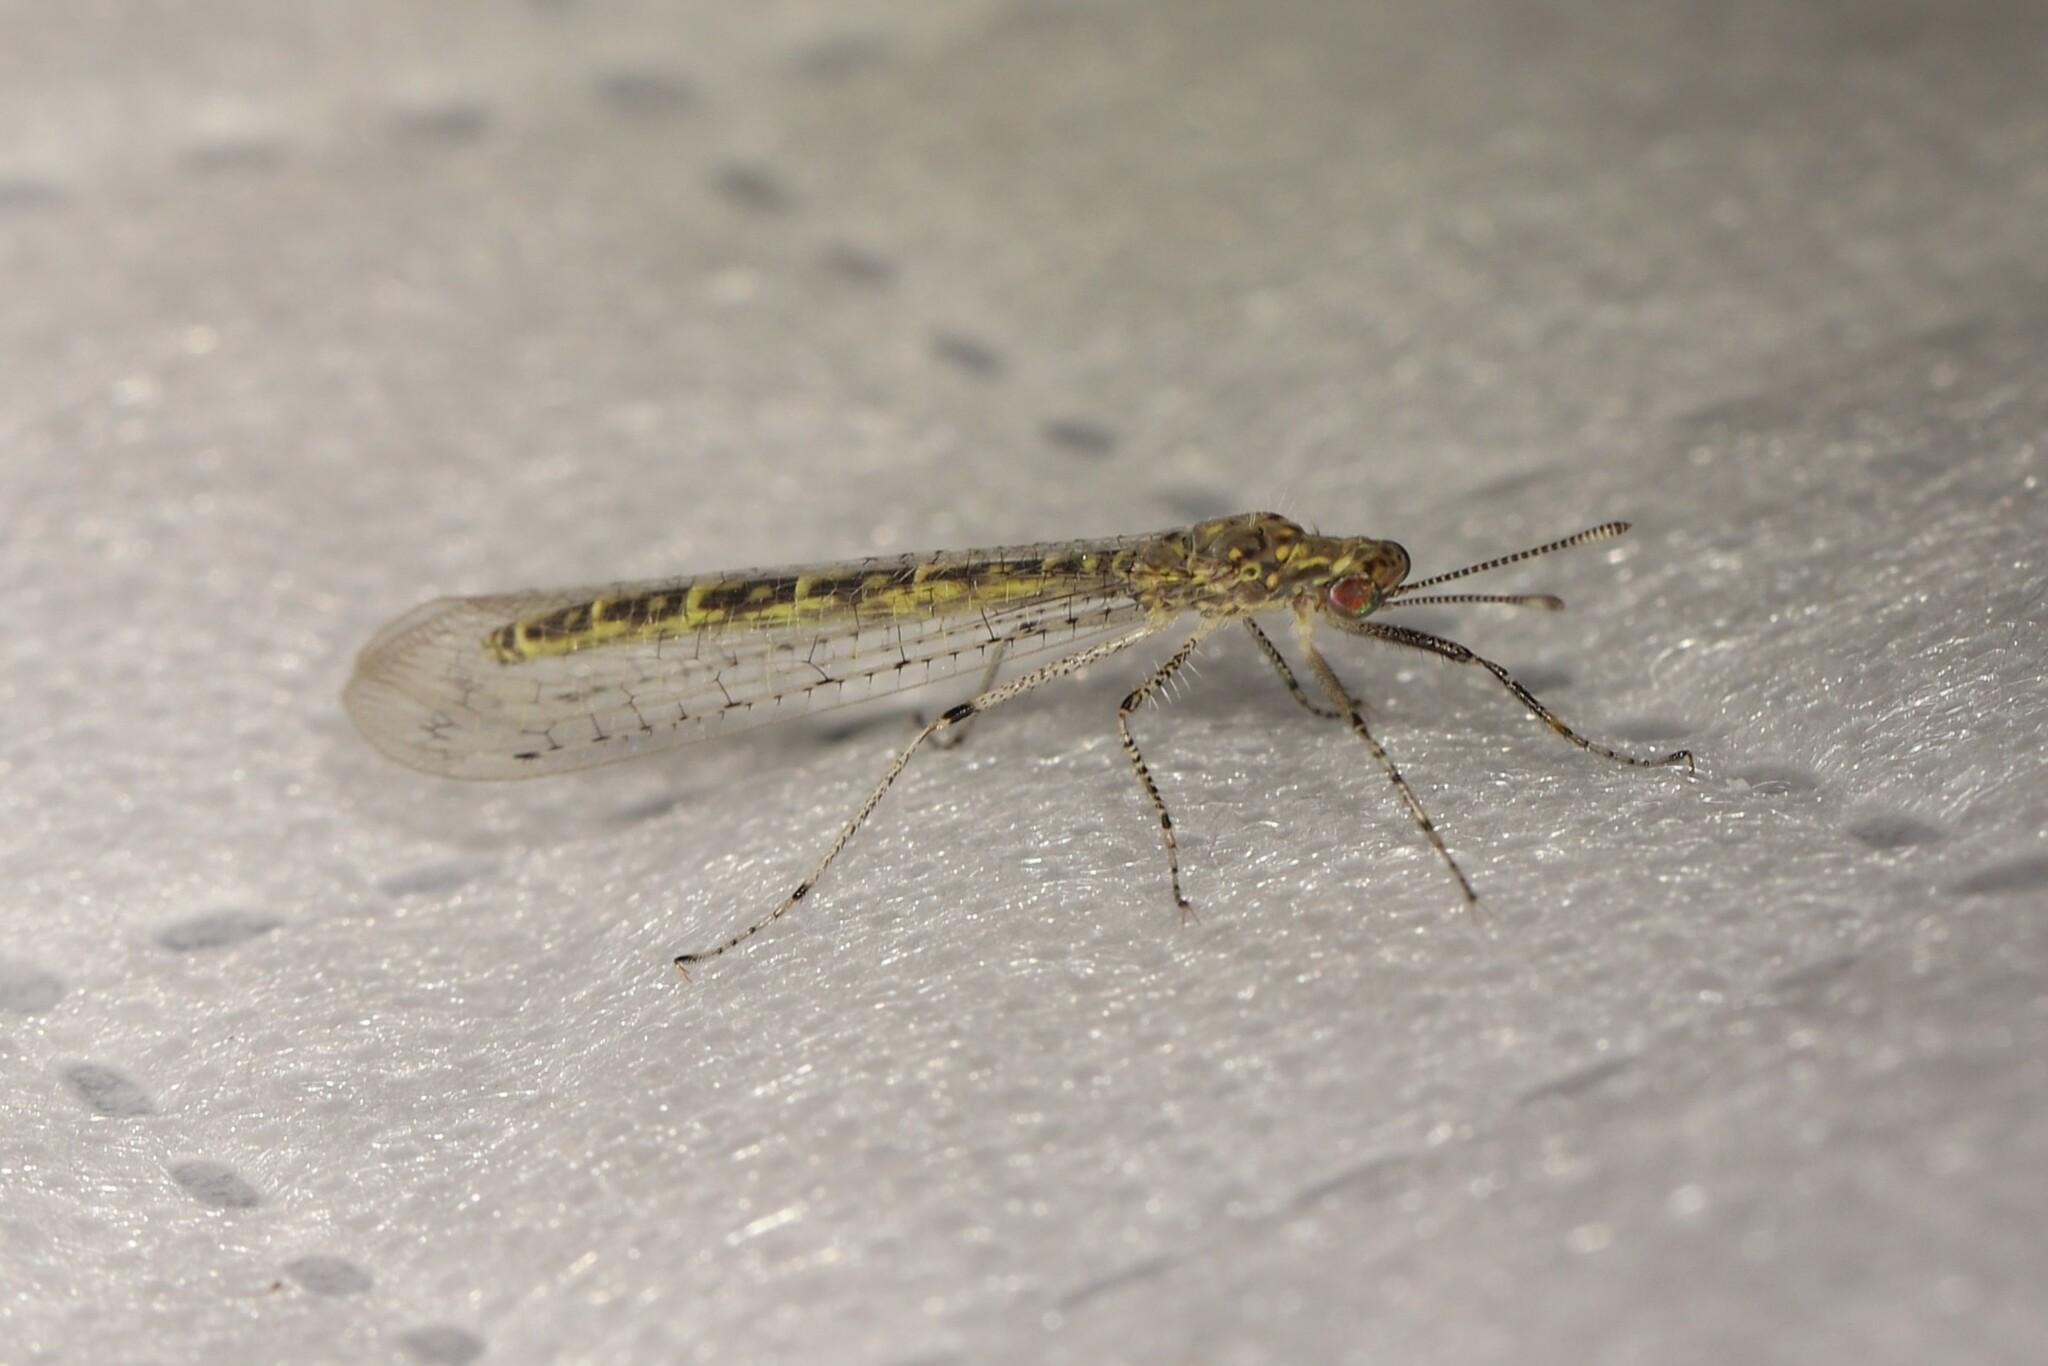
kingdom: Animalia
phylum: Arthropoda
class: Insecta
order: Neuroptera
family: Myrmeleontidae
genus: Dimarella
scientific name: Dimarella angusta
